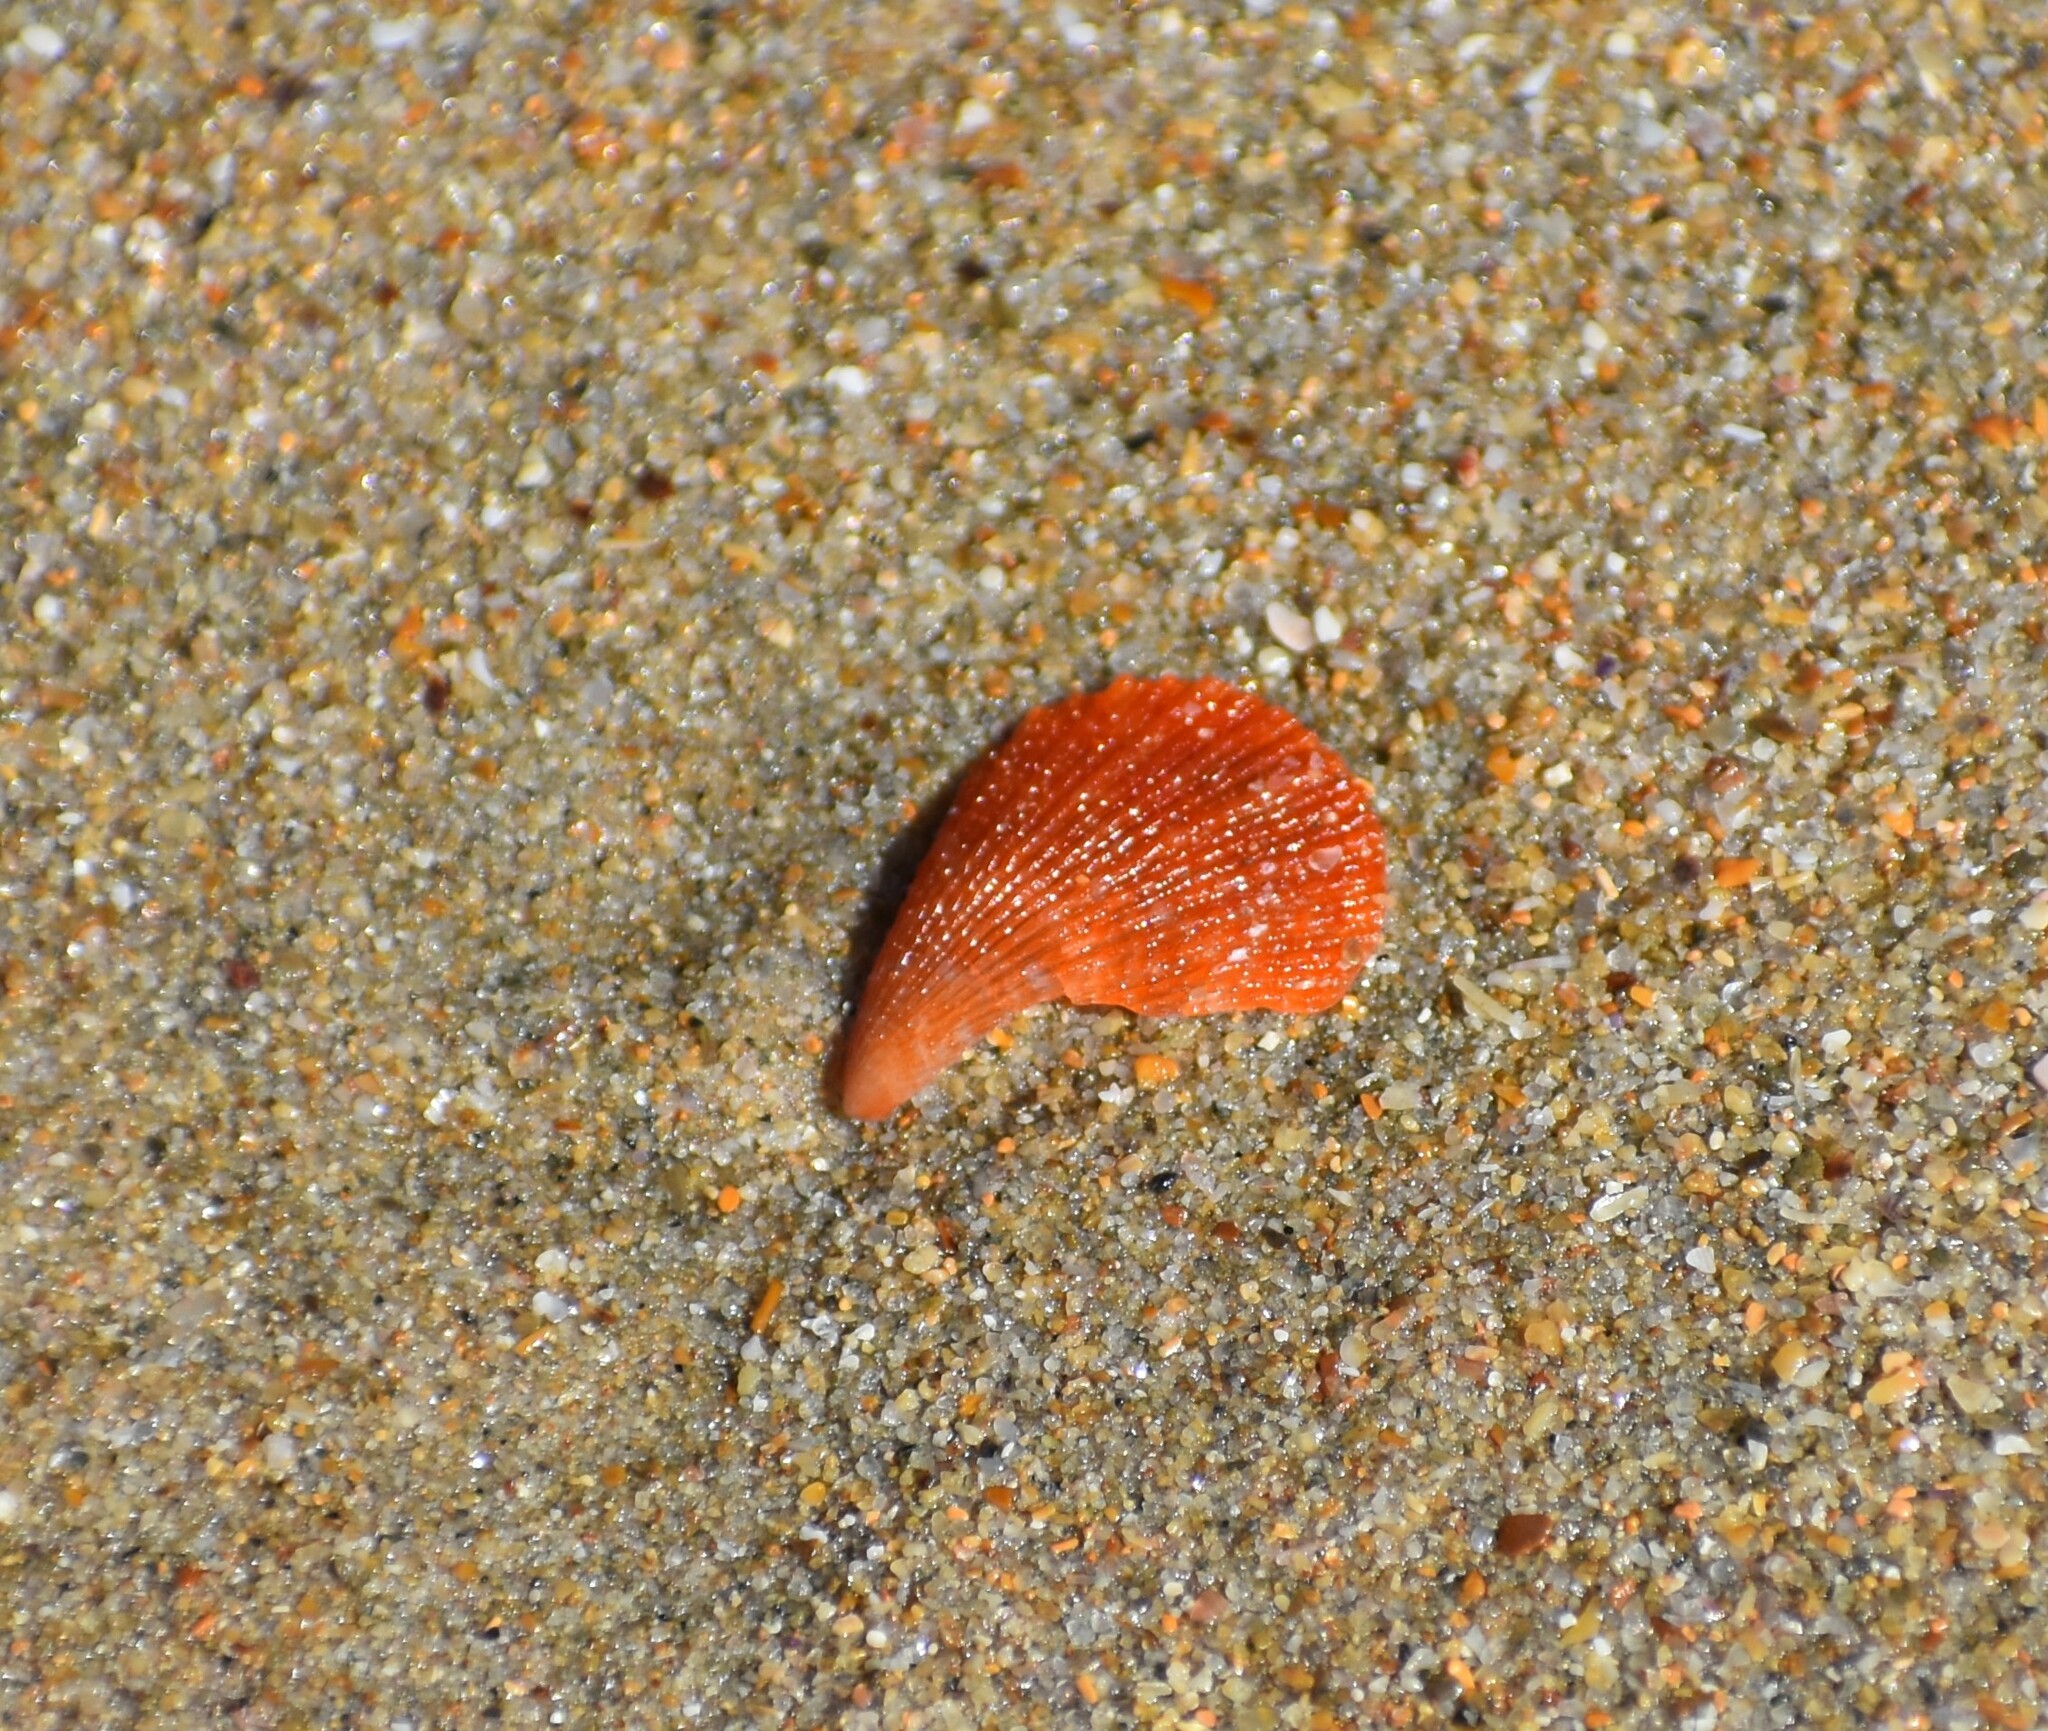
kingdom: Animalia
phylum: Mollusca
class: Bivalvia
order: Pectinida
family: Pectinidae
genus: Talochlamys
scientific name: Talochlamys multistriata
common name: Tinted scallop
